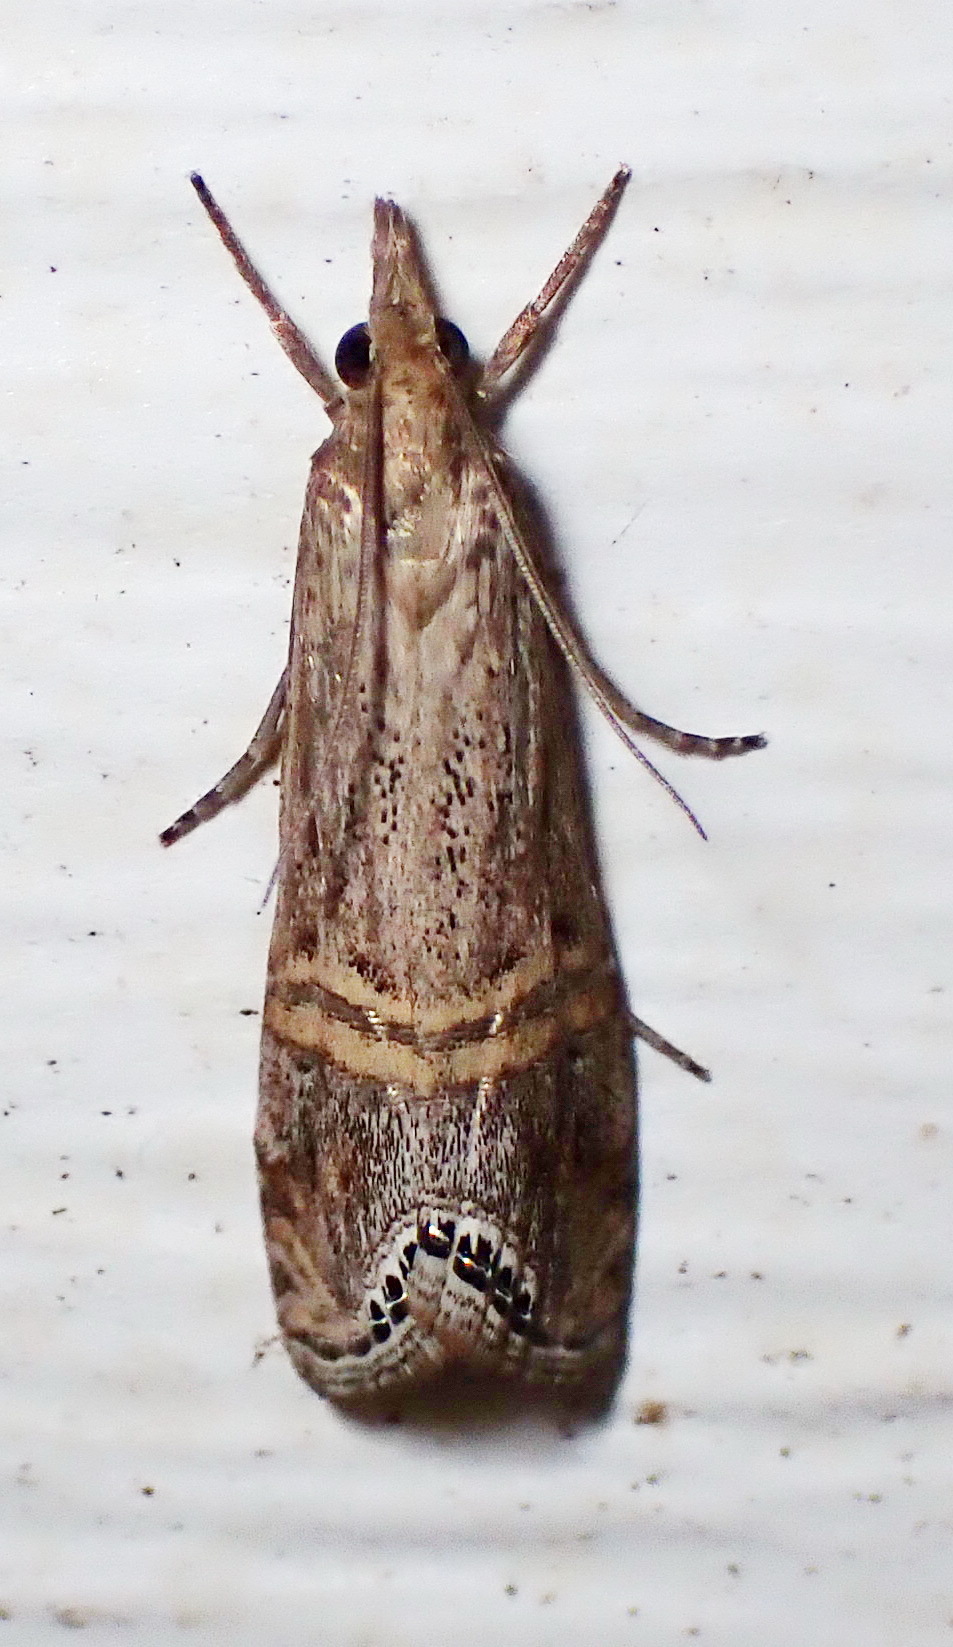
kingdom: Animalia
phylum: Arthropoda
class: Insecta
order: Lepidoptera
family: Crambidae
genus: Euchromius
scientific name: Euchromius ocellea
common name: Necklace veneer moth
